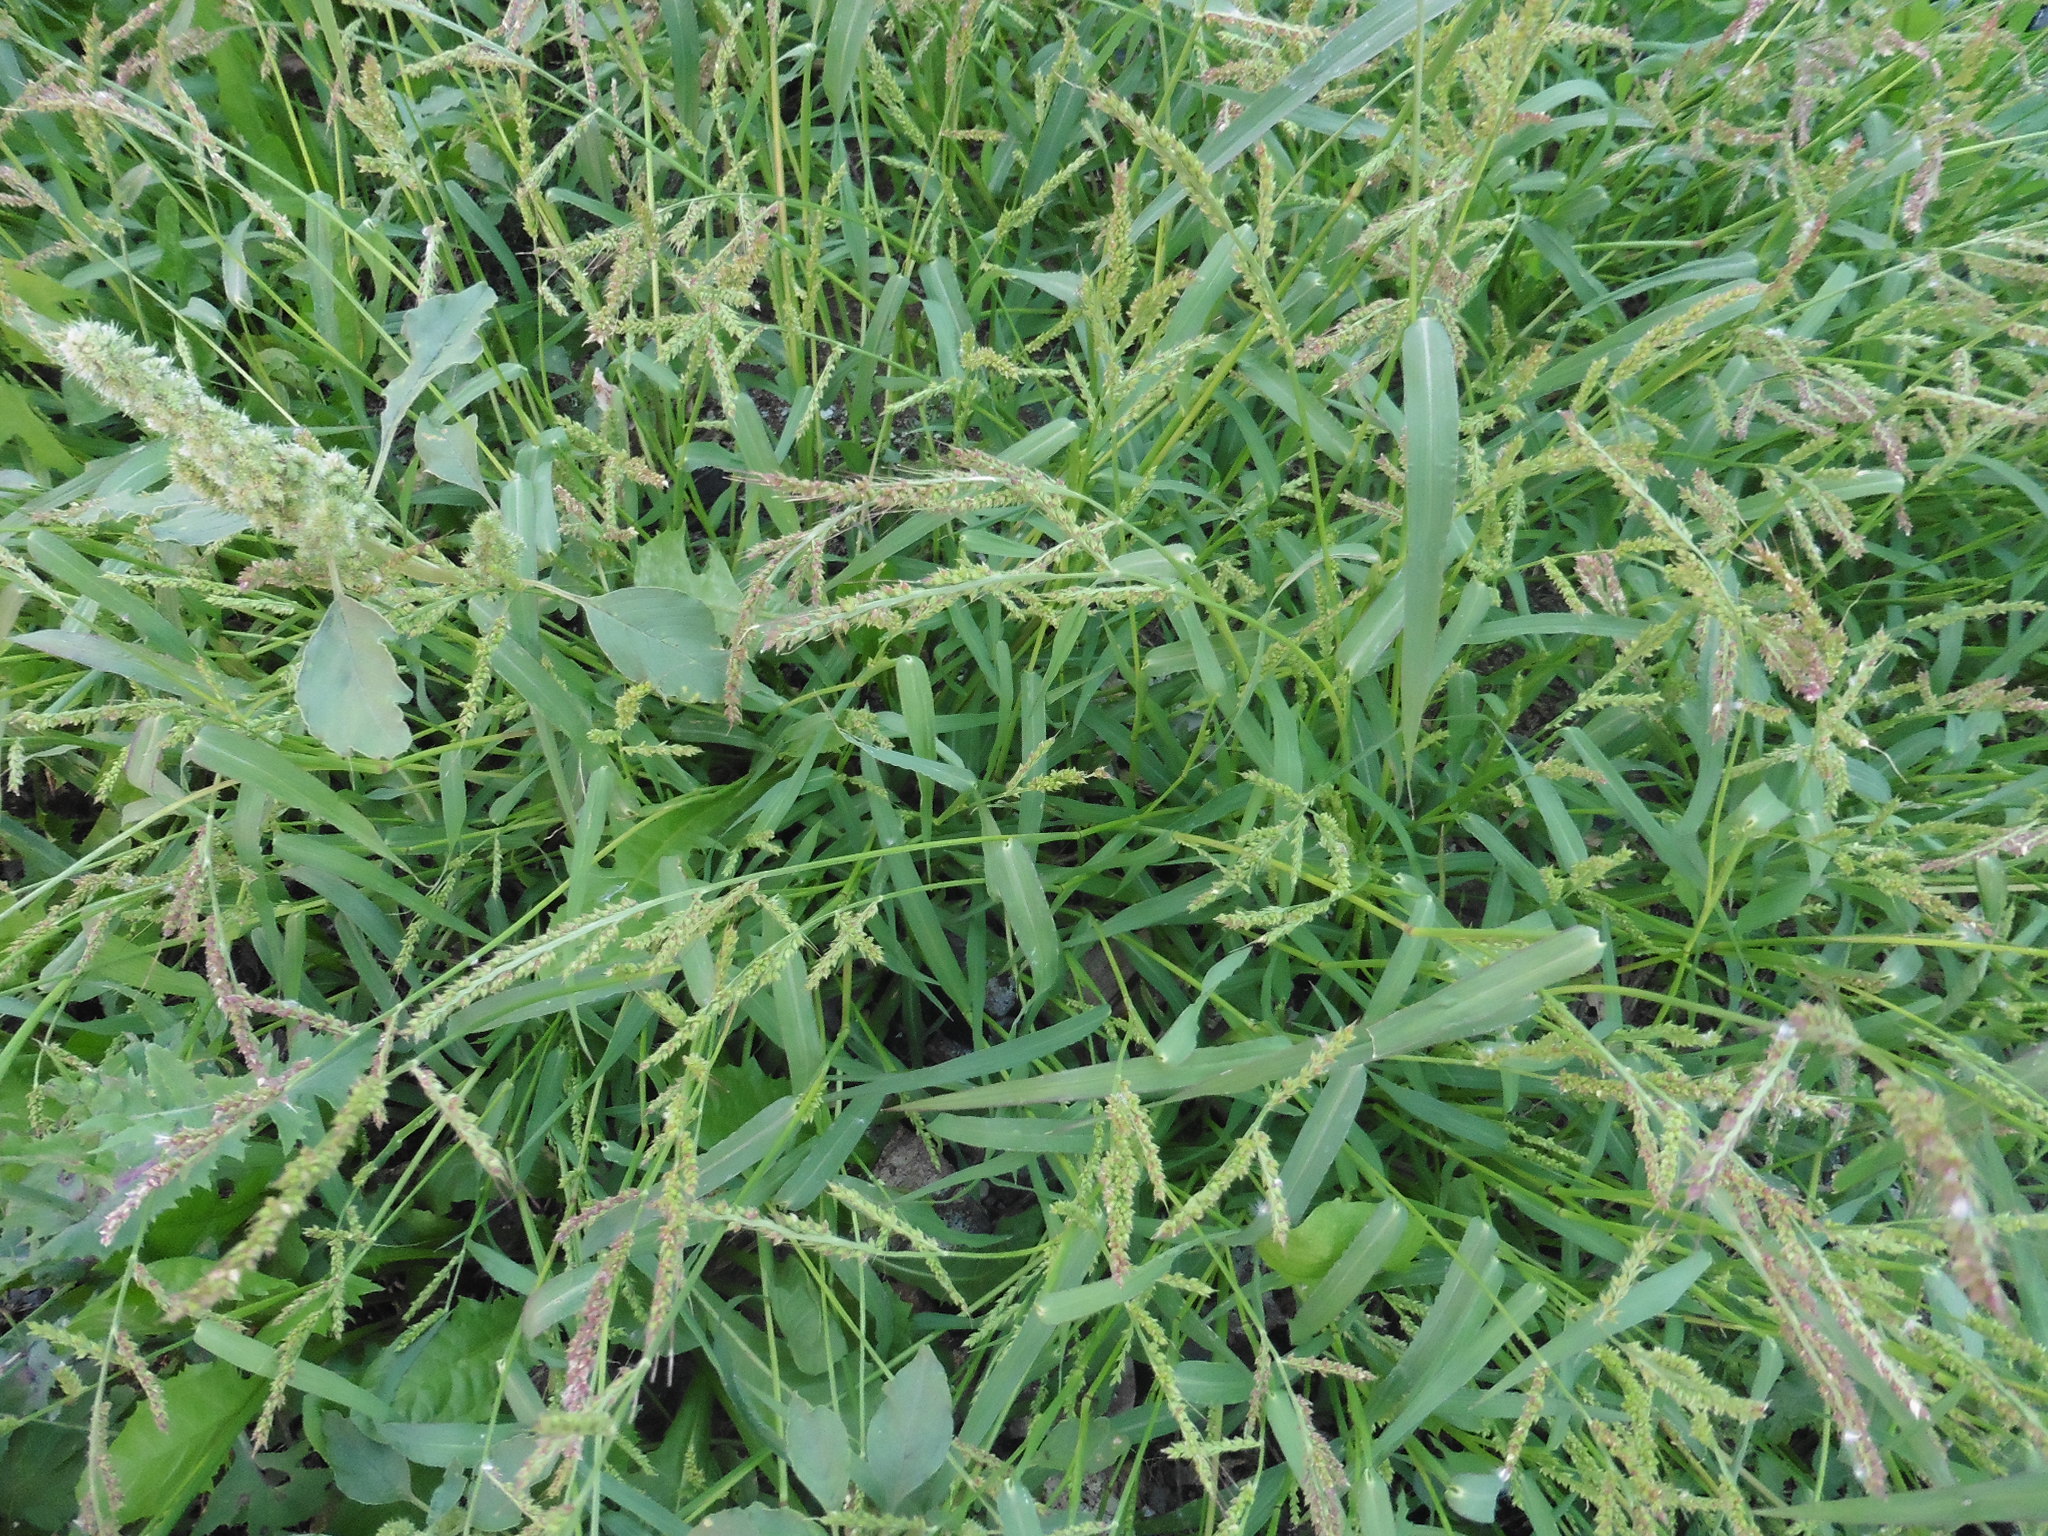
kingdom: Plantae
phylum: Tracheophyta
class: Liliopsida
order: Poales
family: Poaceae
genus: Echinochloa
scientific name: Echinochloa crus-galli
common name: Cockspur
